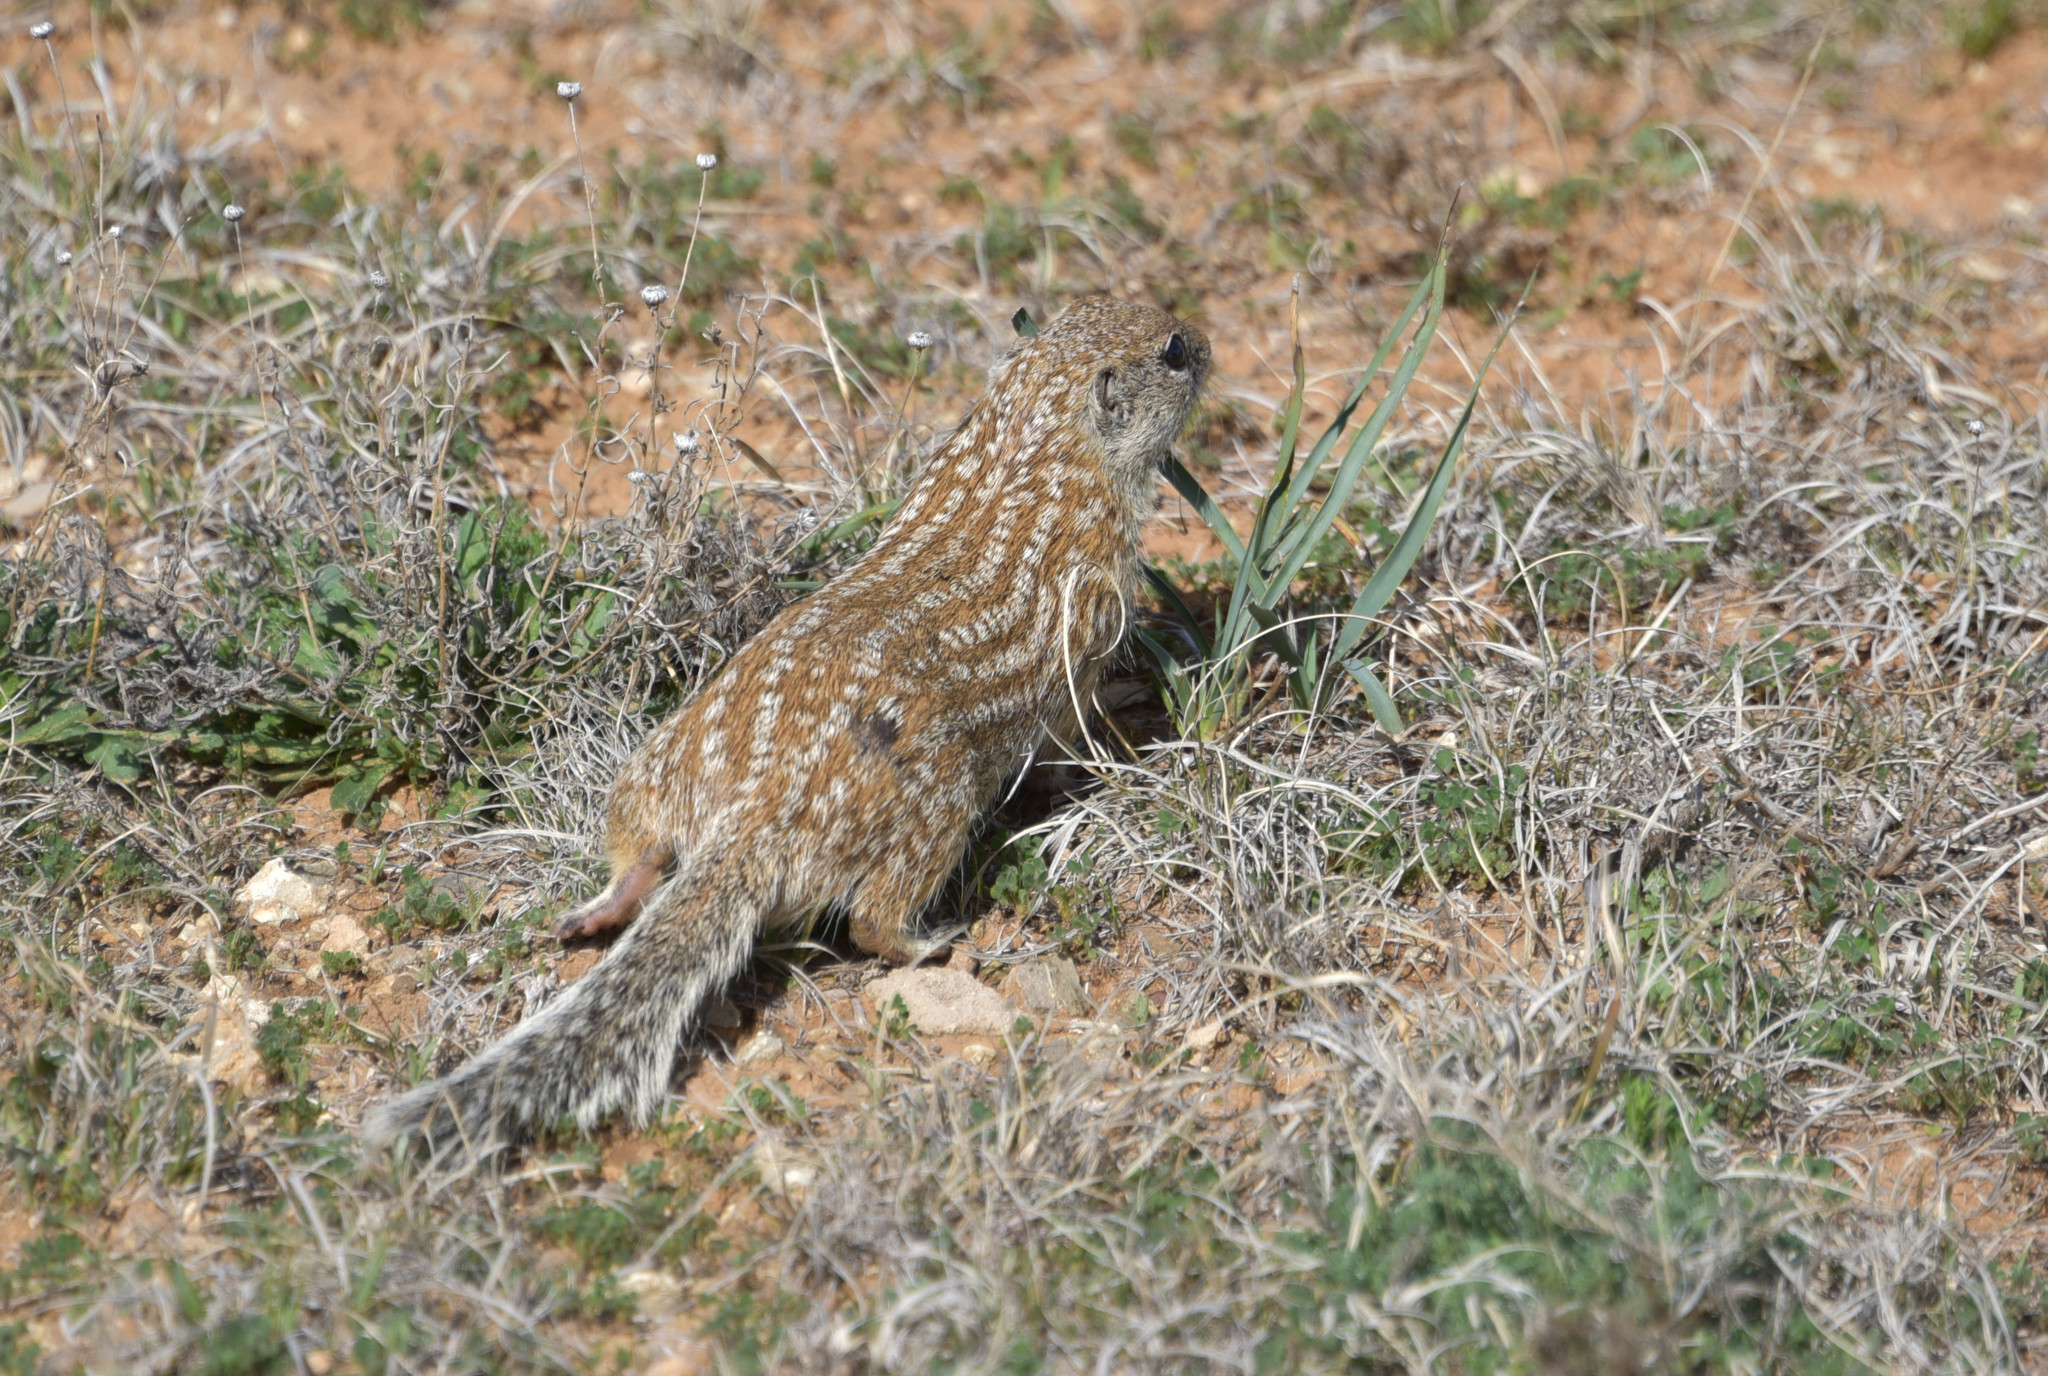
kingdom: Animalia
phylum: Chordata
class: Mammalia
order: Rodentia
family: Sciuridae
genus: Ictidomys
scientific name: Ictidomys parvidens
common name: Rio grande ground squirrel
